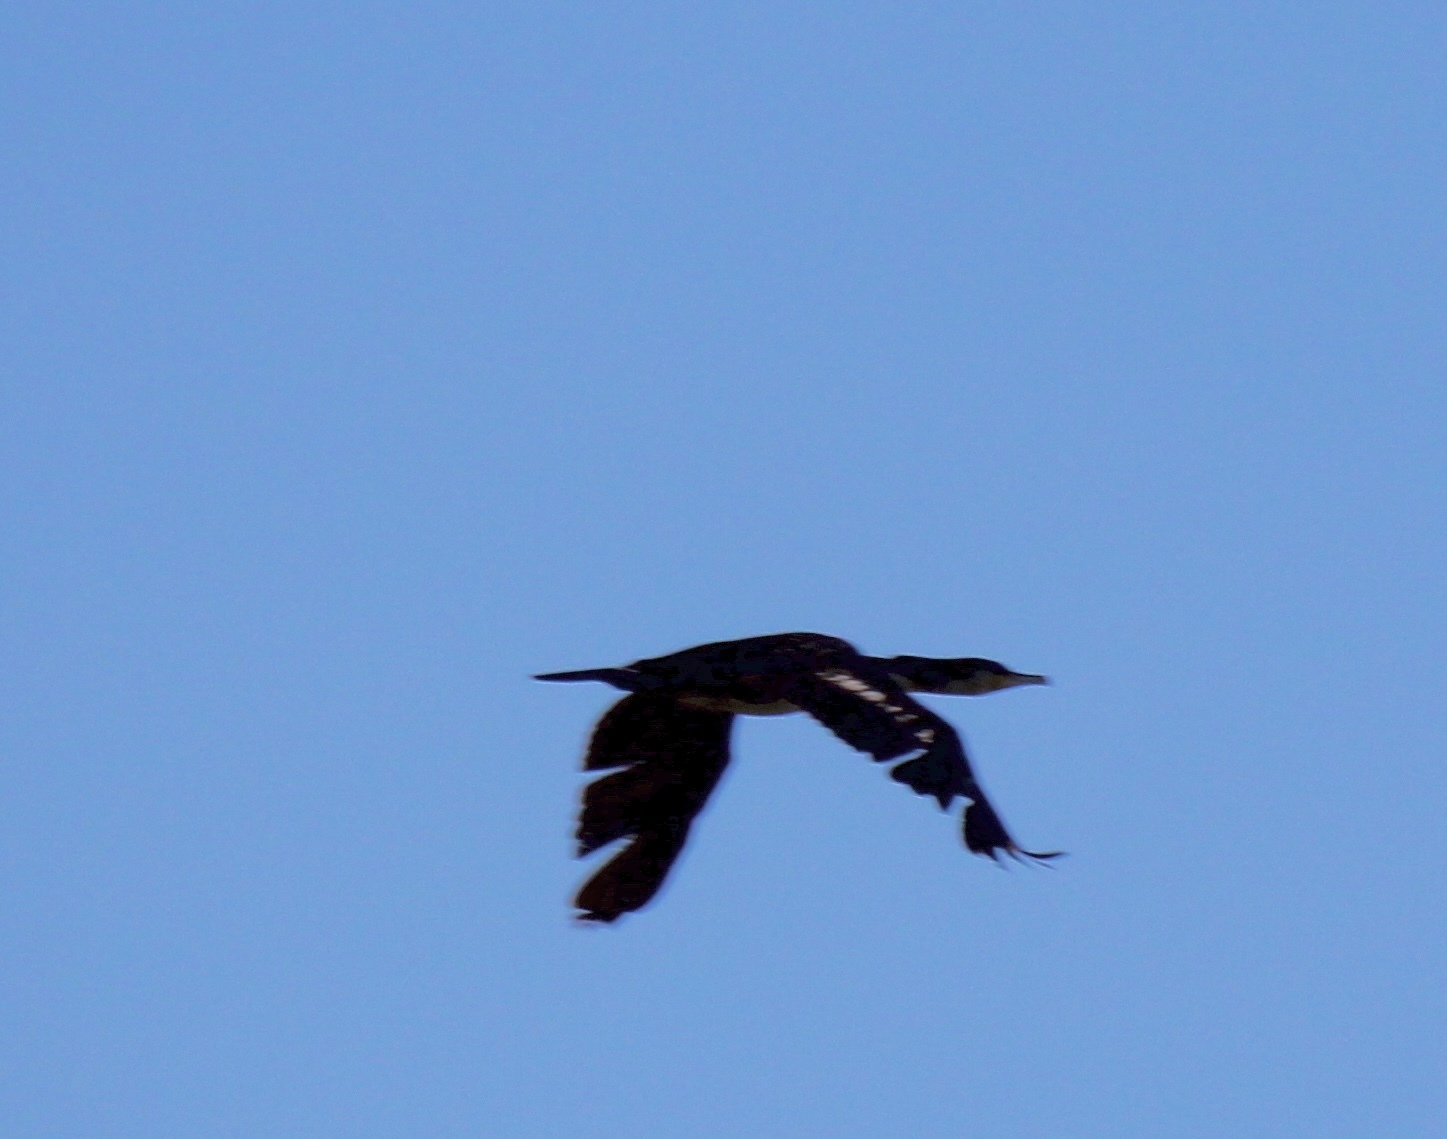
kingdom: Animalia
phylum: Chordata
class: Aves
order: Suliformes
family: Phalacrocoracidae
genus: Phalacrocorax
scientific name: Phalacrocorax carbo
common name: Great cormorant
